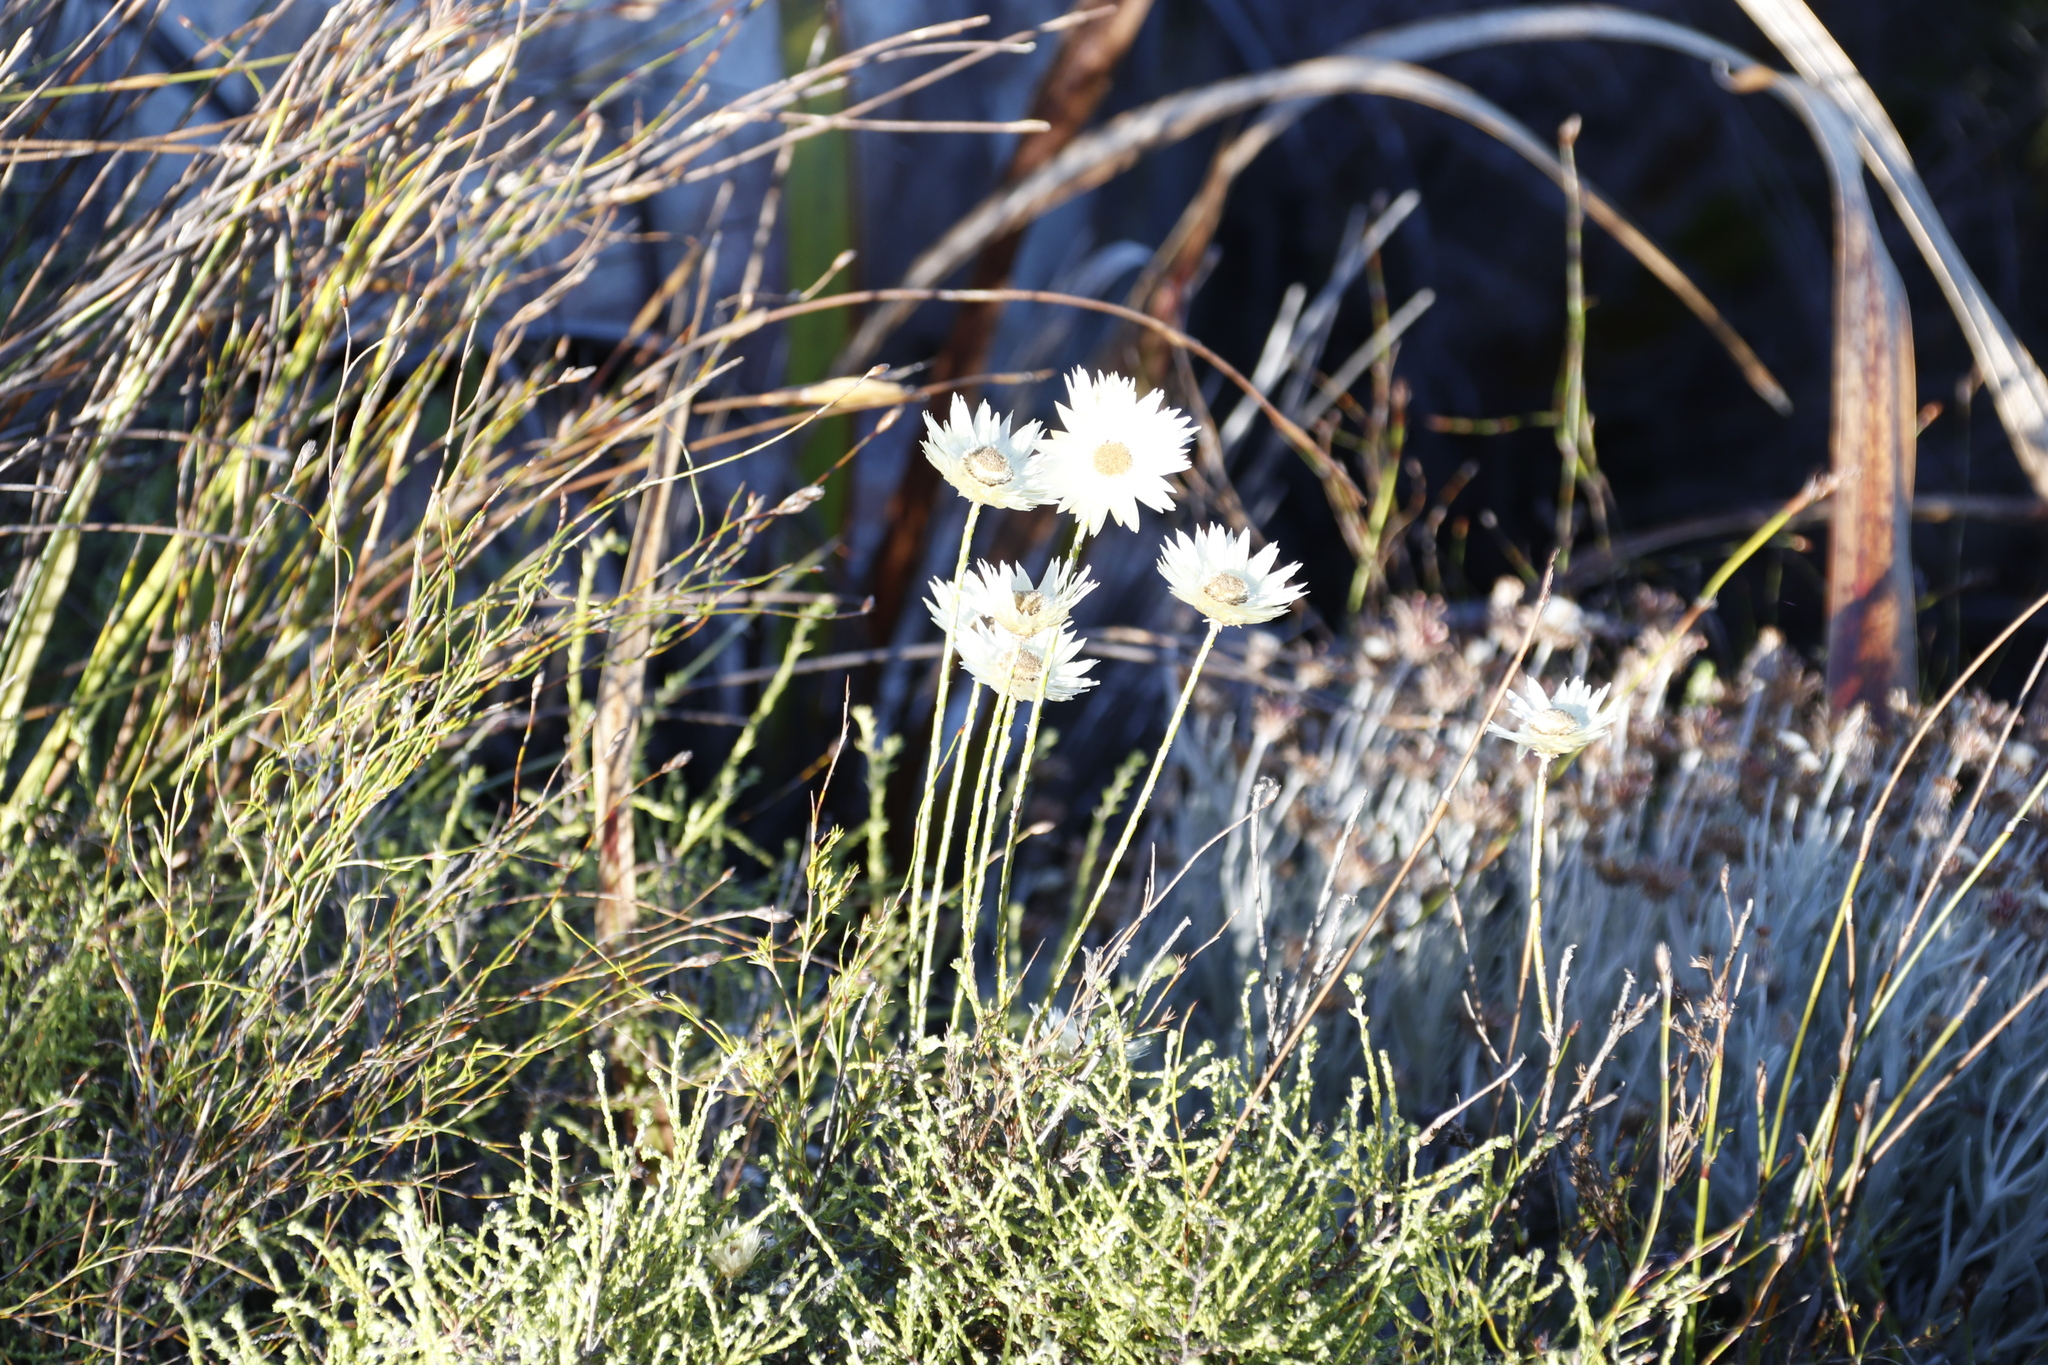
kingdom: Plantae
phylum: Tracheophyta
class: Magnoliopsida
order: Asterales
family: Asteraceae
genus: Edmondia
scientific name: Edmondia sesamoides
